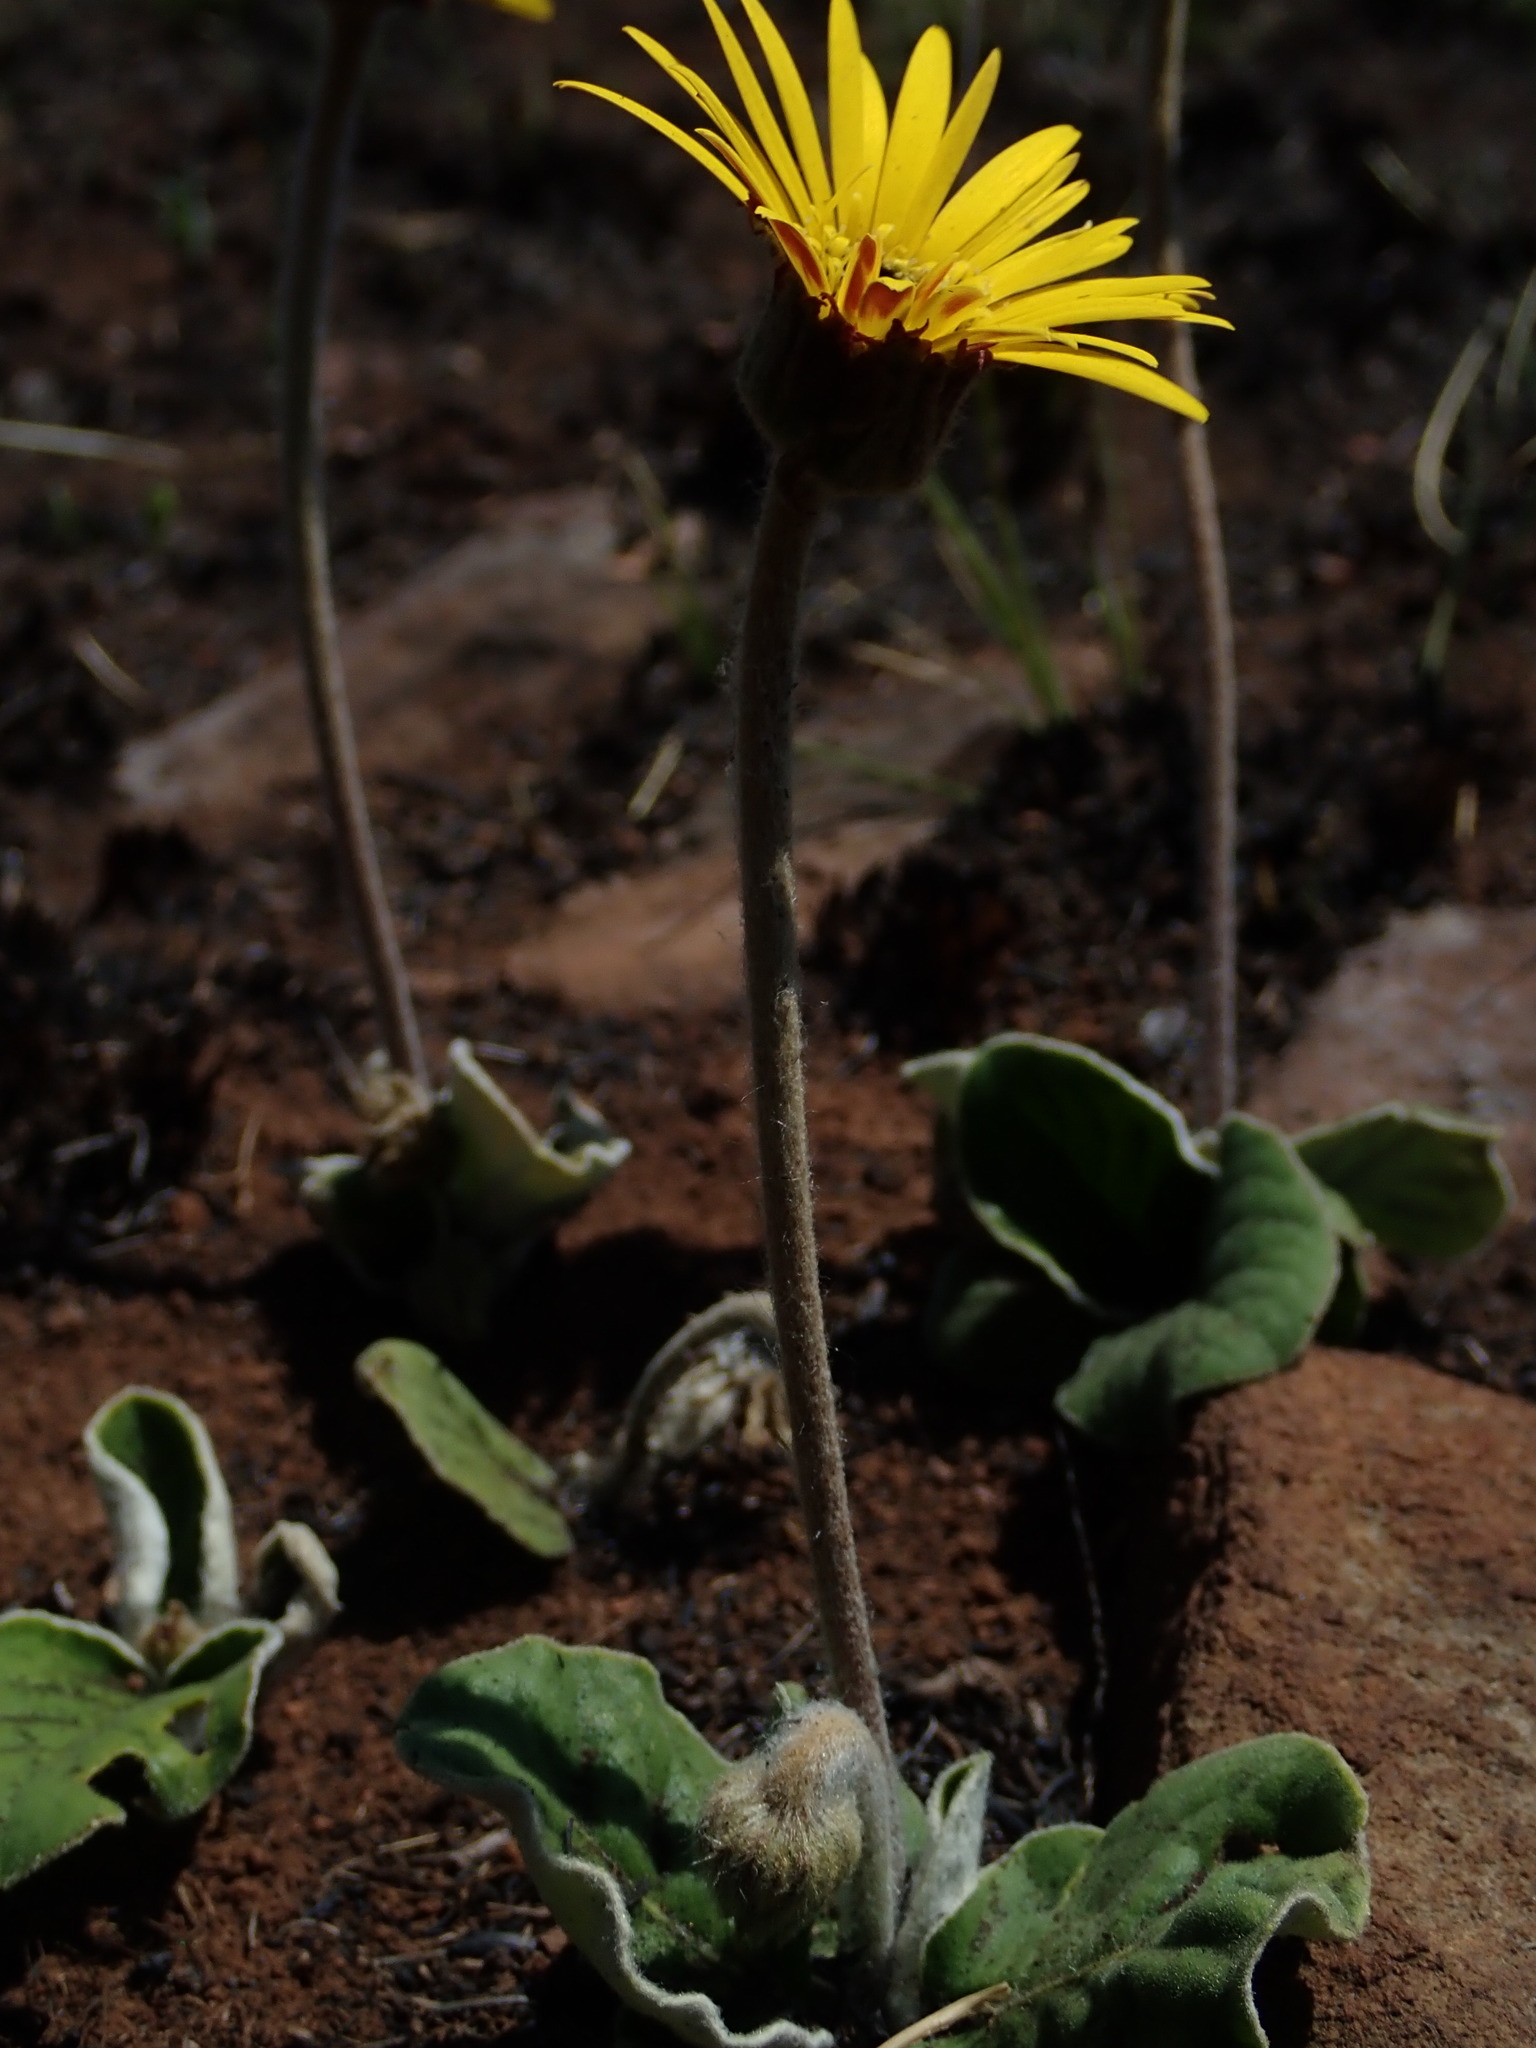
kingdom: Plantae
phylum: Tracheophyta
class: Magnoliopsida
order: Asterales
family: Asteraceae
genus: Gerbera
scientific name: Gerbera ambigua
